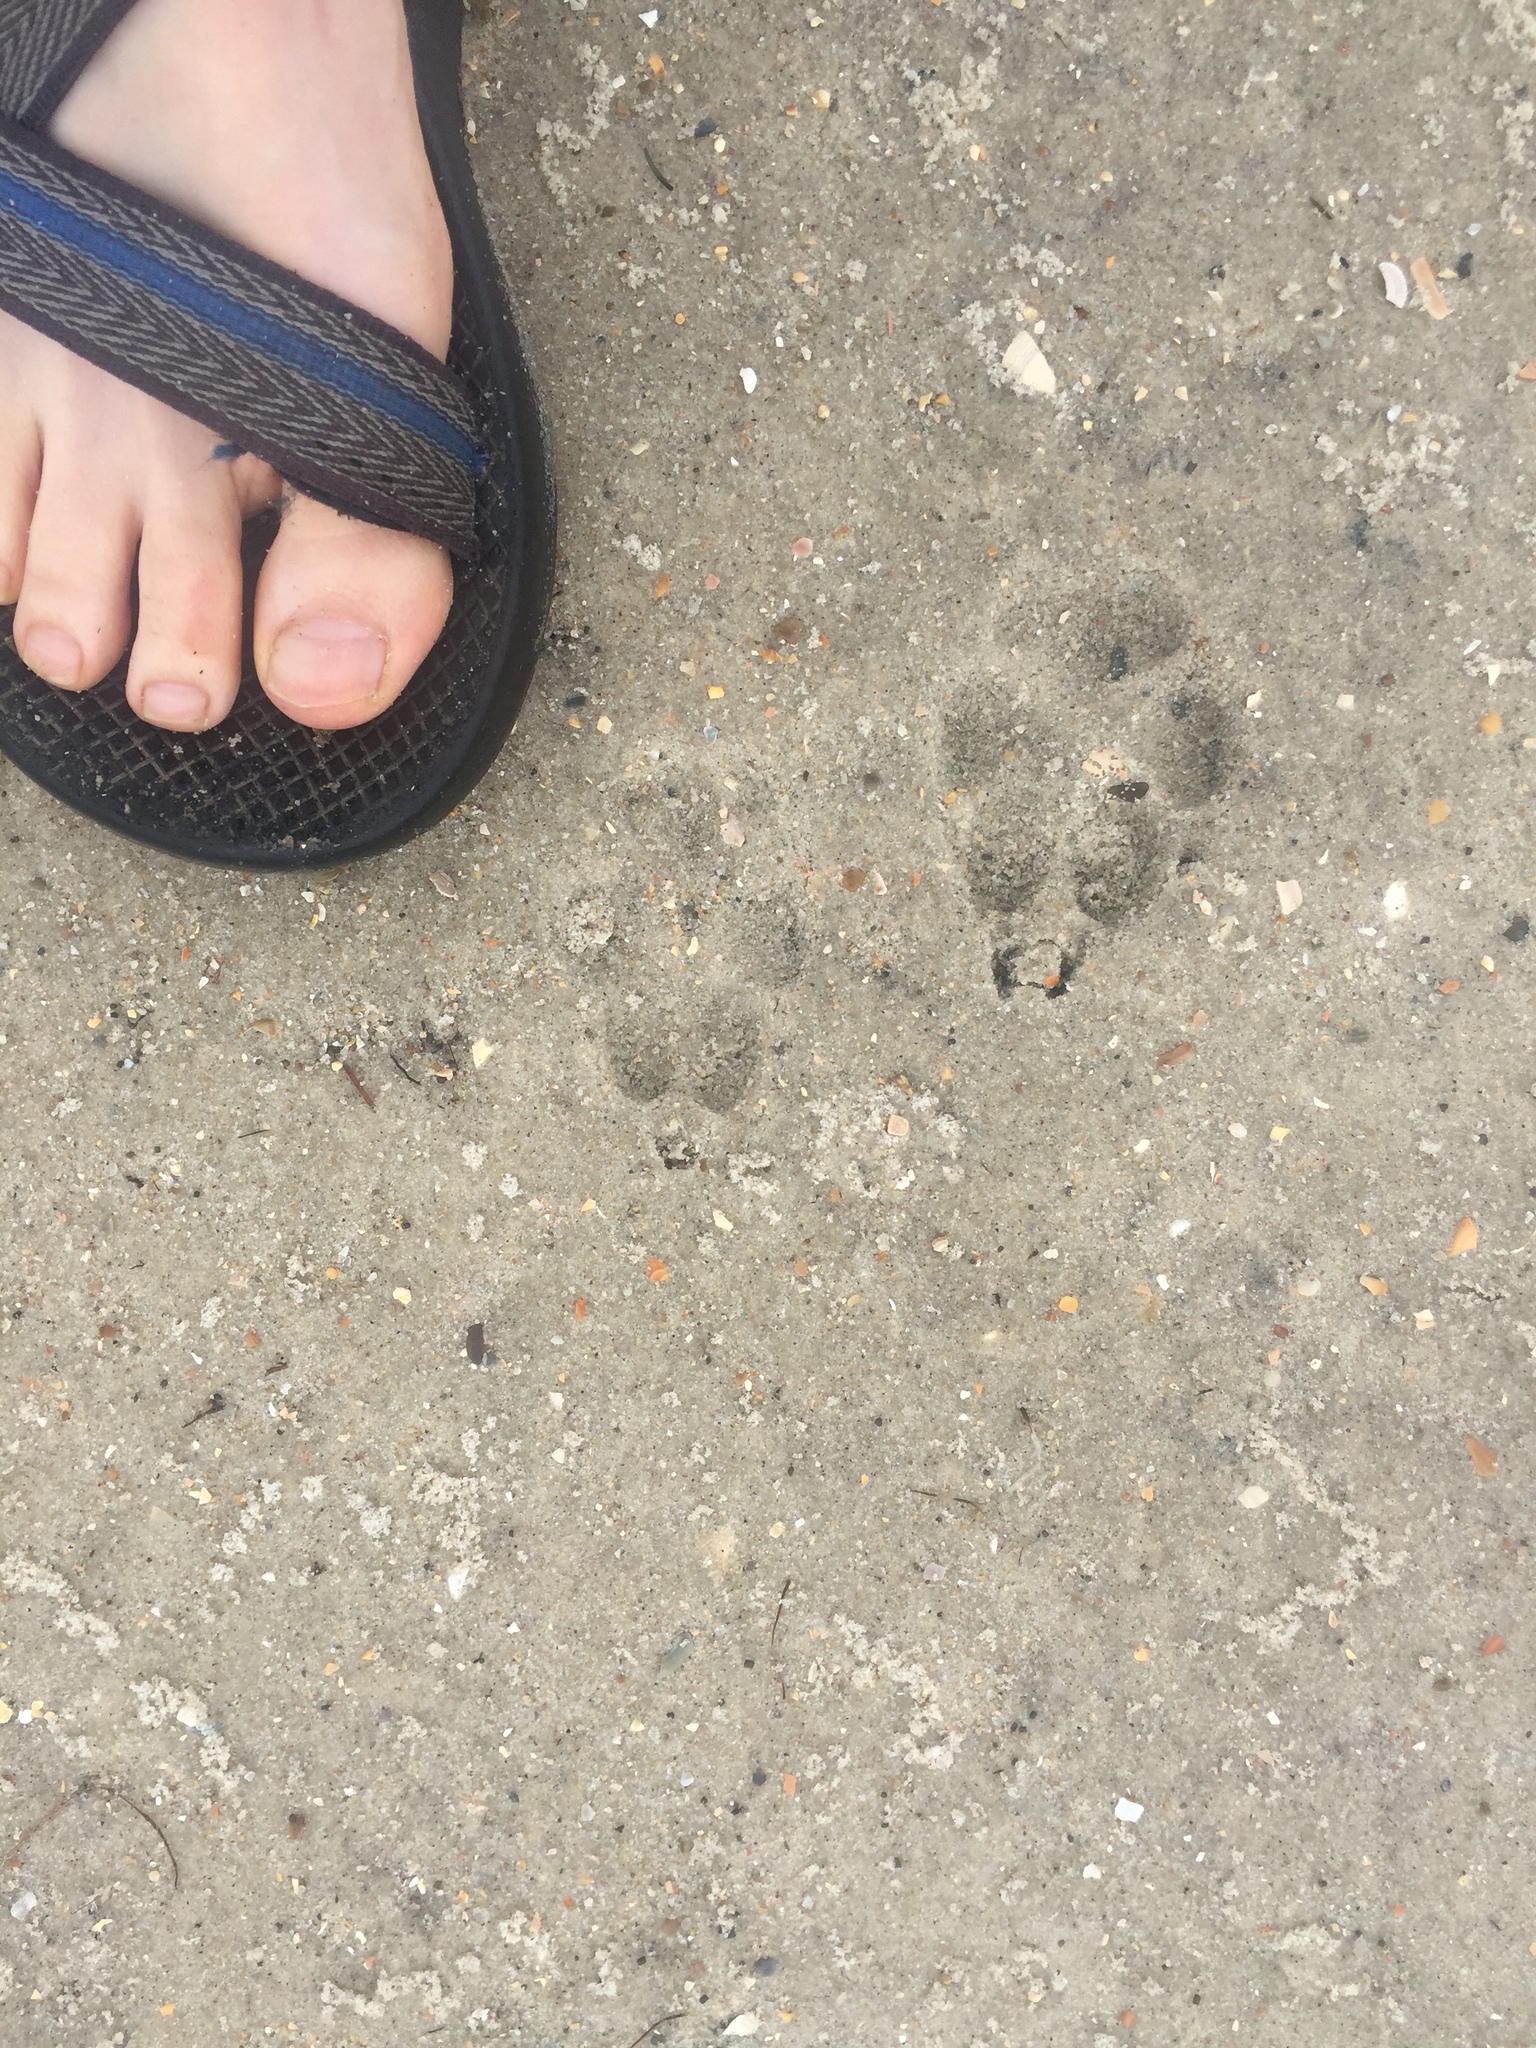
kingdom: Animalia
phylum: Chordata
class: Mammalia
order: Carnivora
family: Canidae
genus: Canis
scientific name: Canis latrans
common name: Coyote
